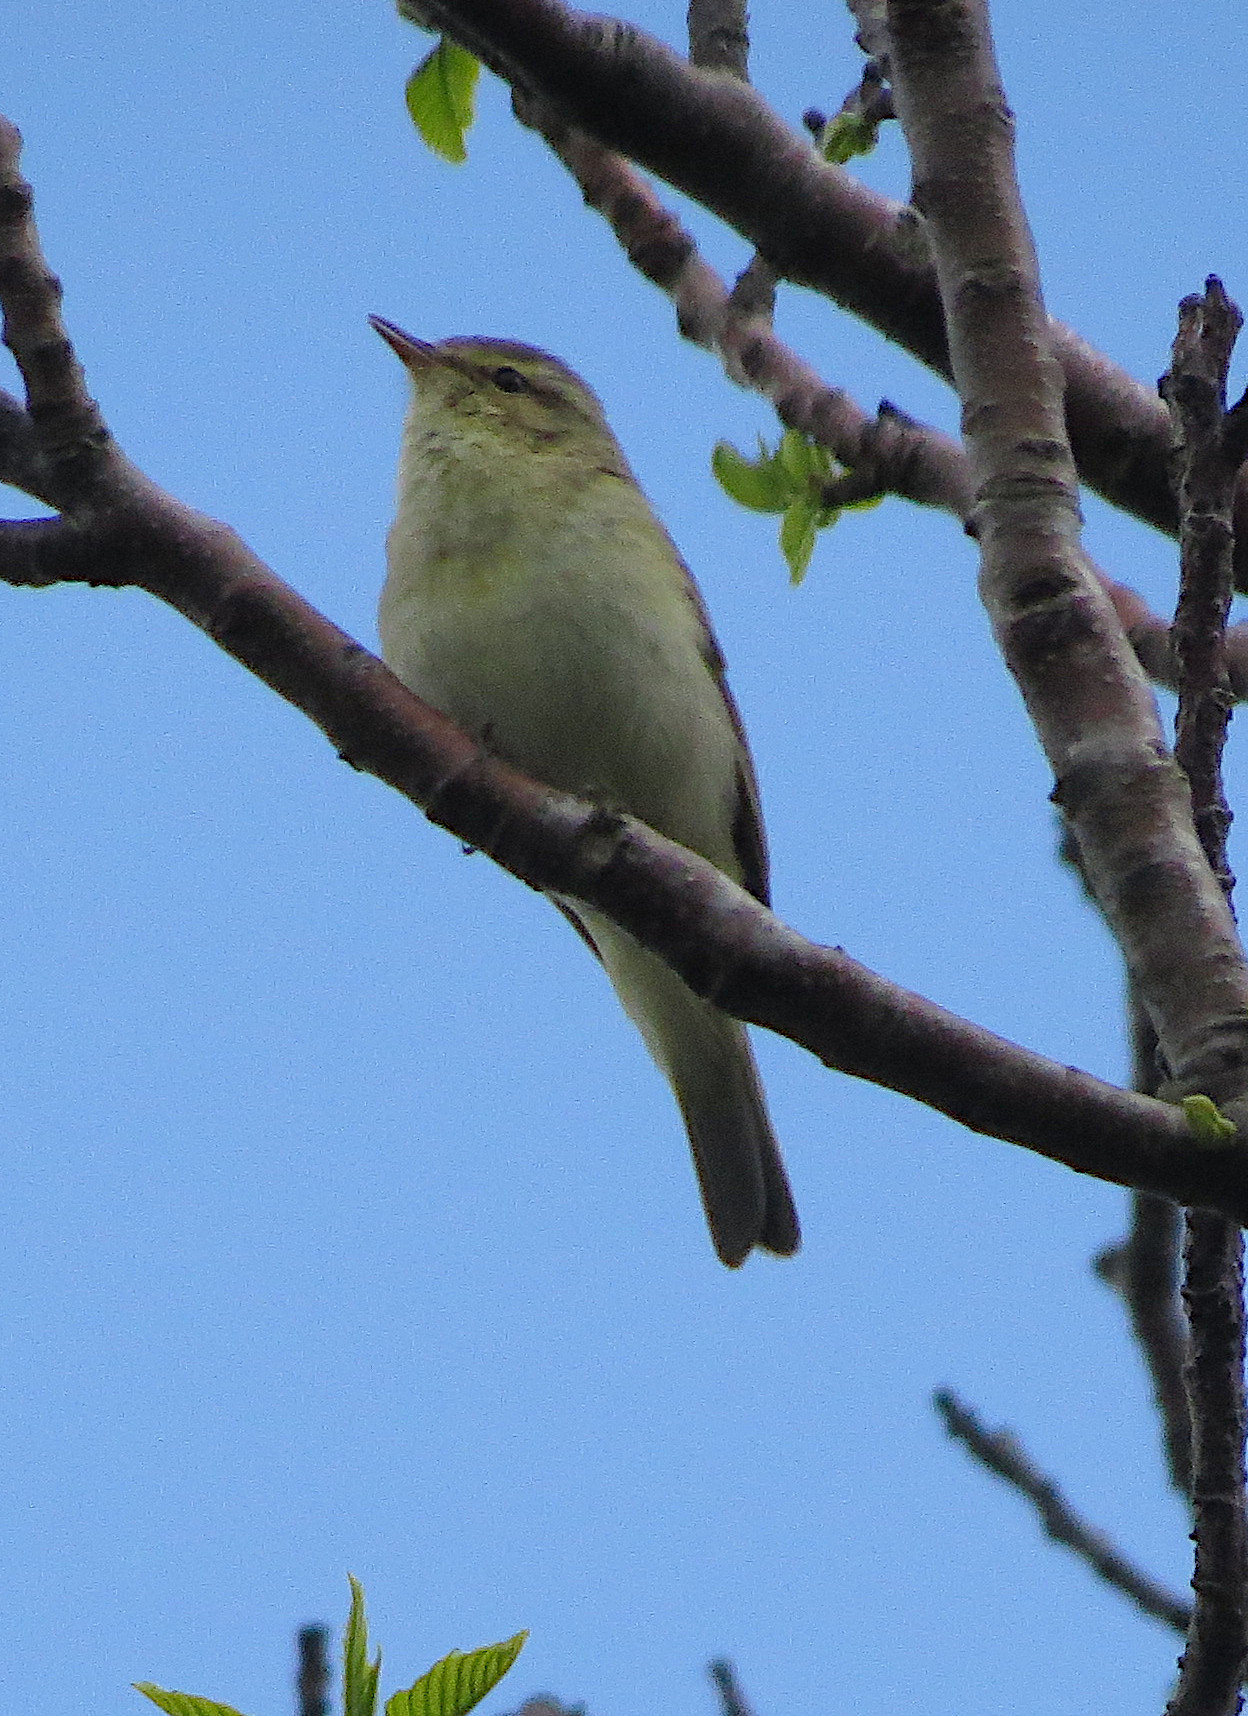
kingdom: Animalia
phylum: Chordata
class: Aves
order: Passeriformes
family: Phylloscopidae
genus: Phylloscopus
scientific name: Phylloscopus trochilus
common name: Willow warbler
